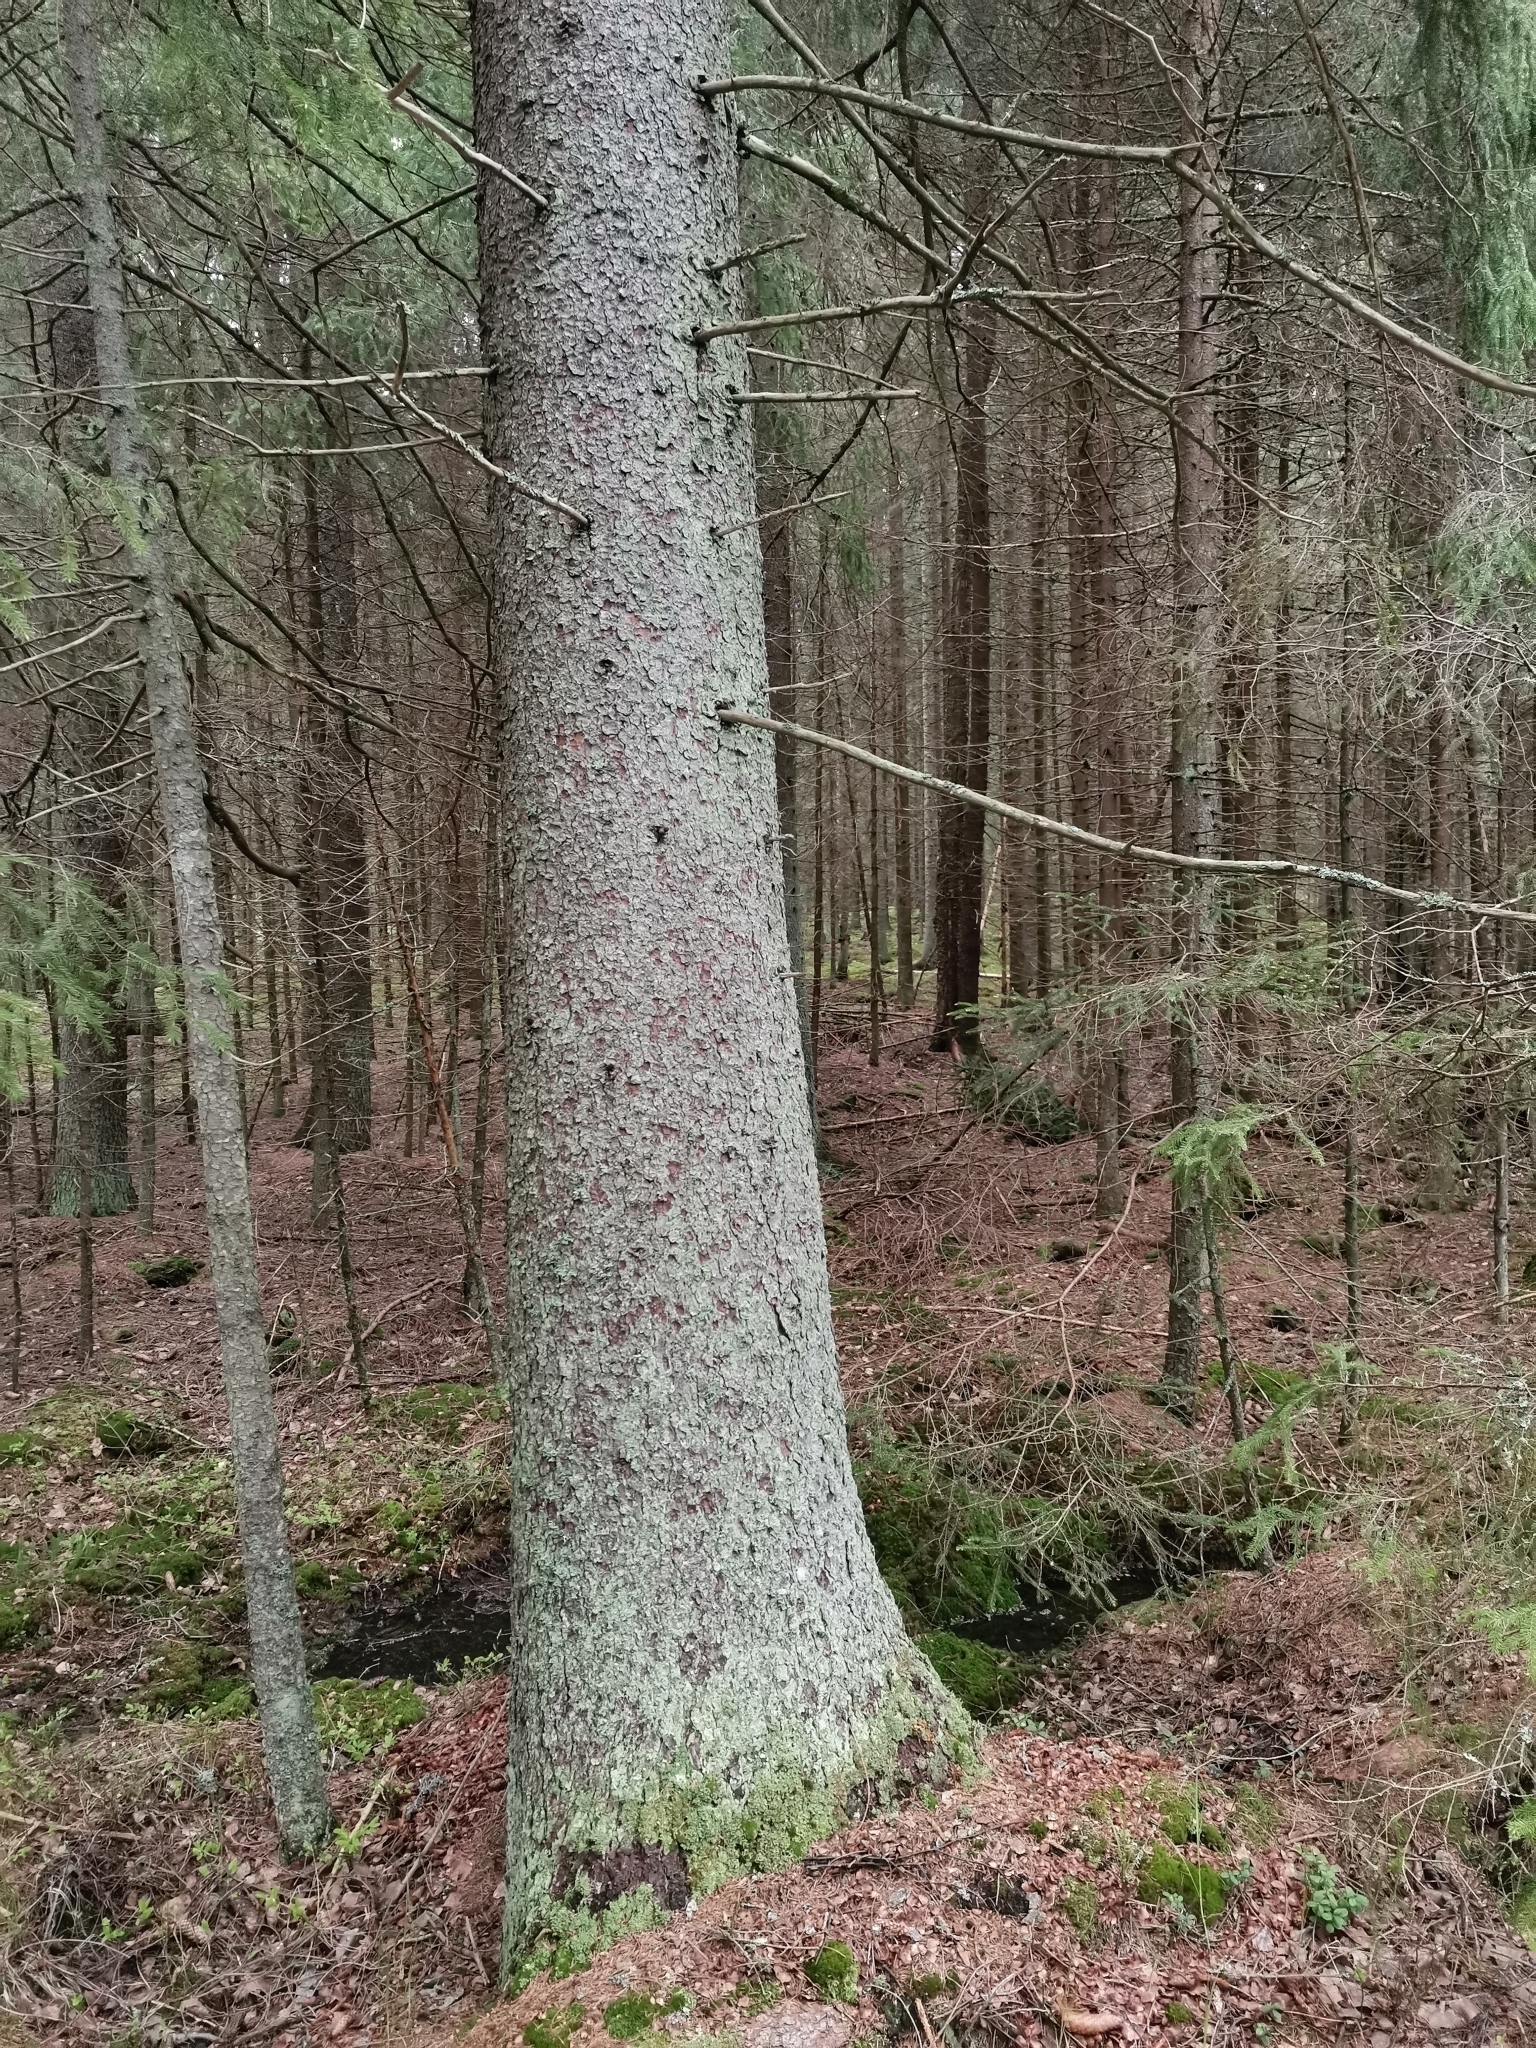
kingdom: Animalia
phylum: Chordata
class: Mammalia
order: Rodentia
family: Sciuridae
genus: Pteromys
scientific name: Pteromys volans
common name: Siberian flying squirrel
